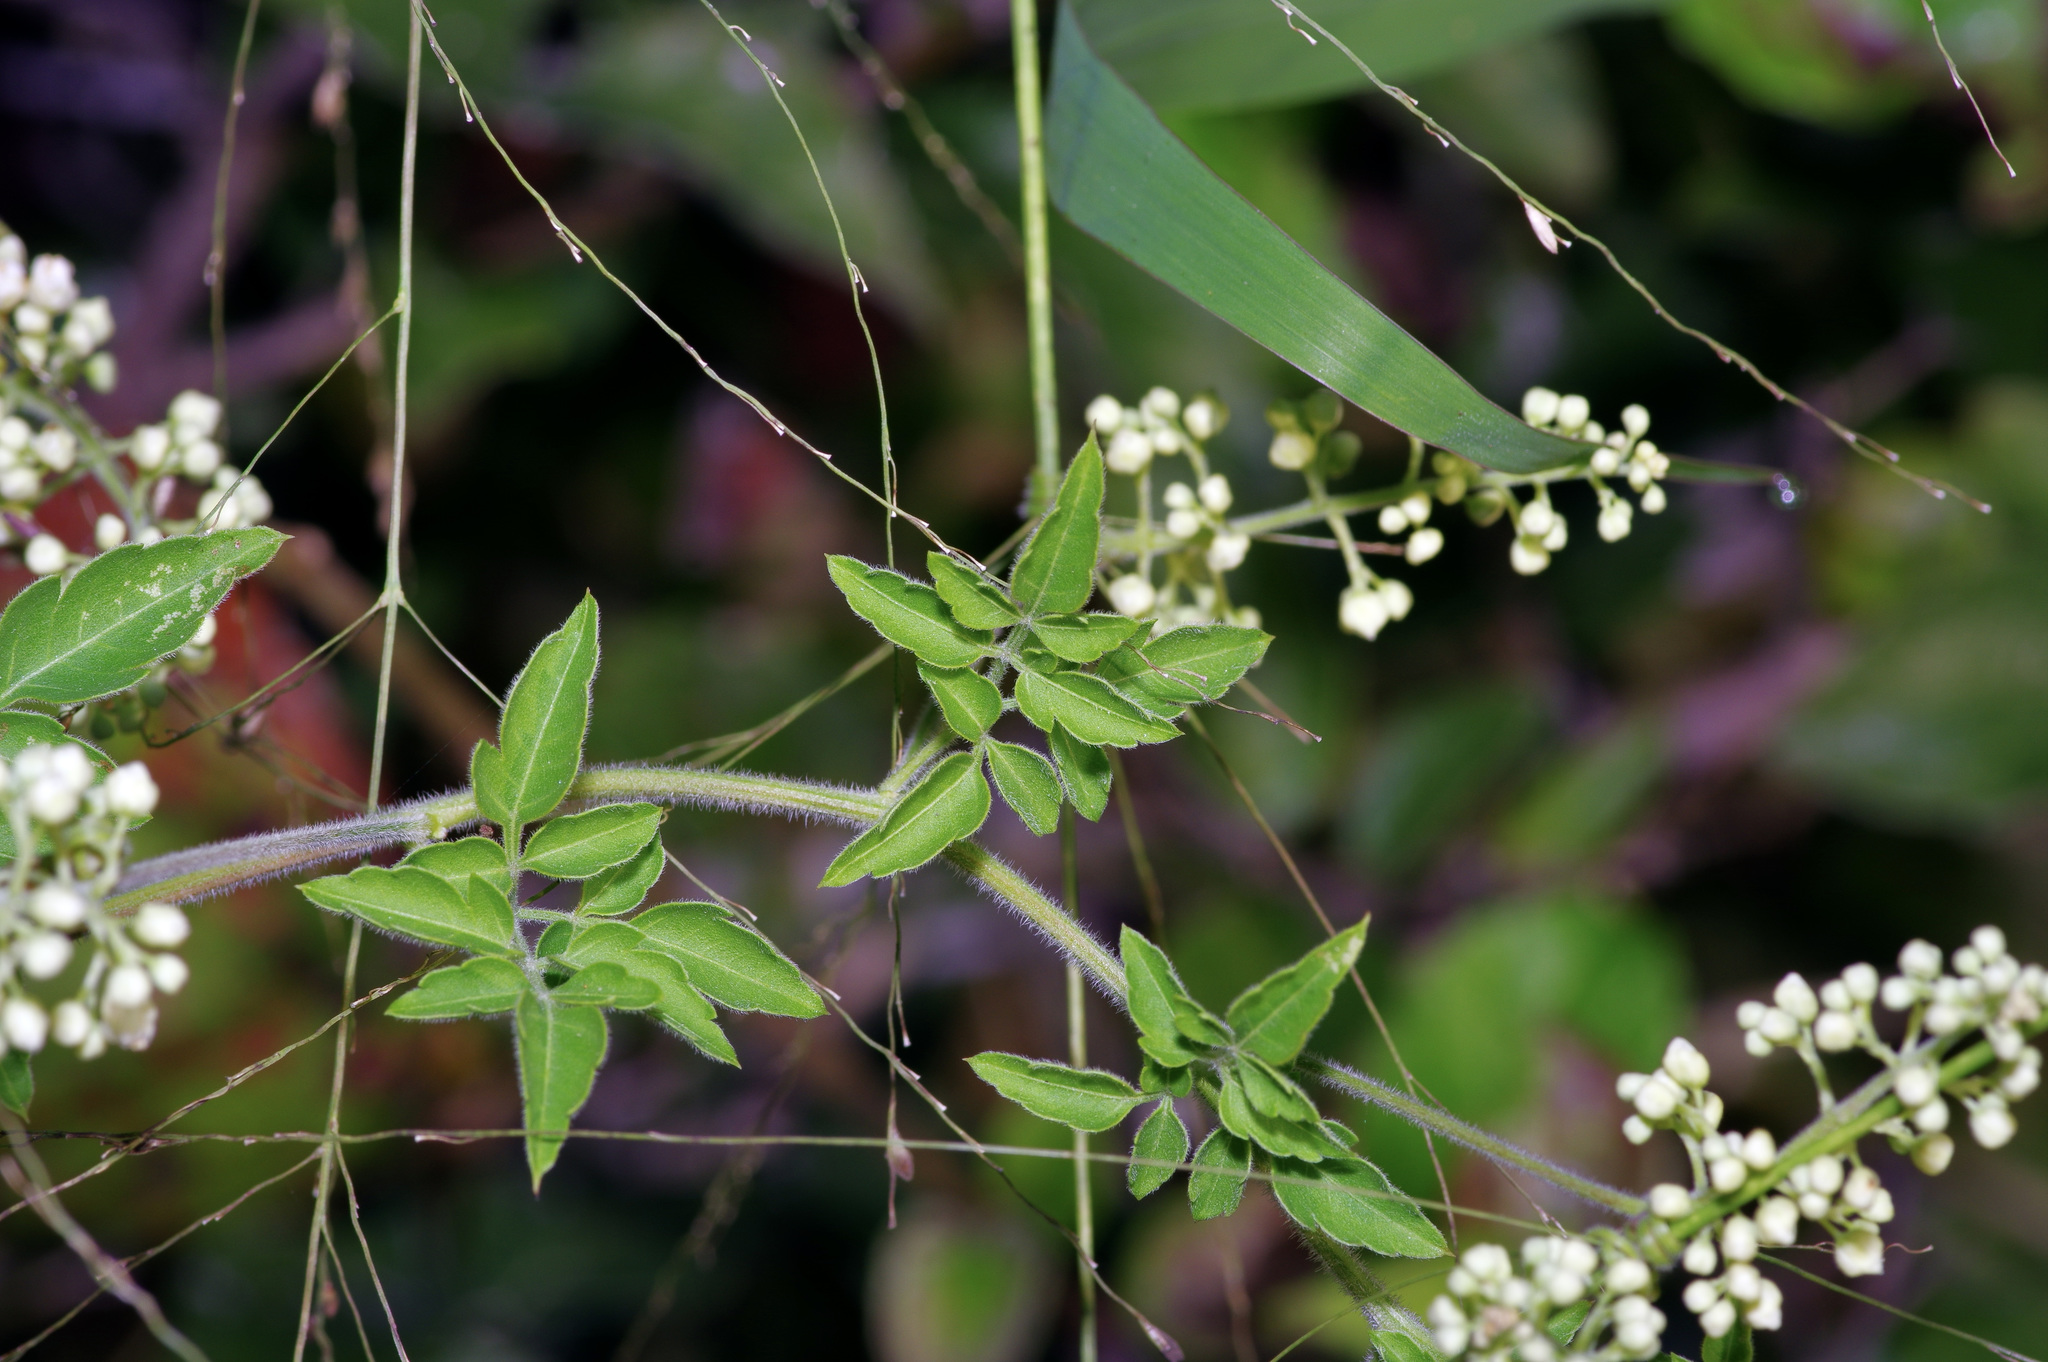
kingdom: Plantae
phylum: Tracheophyta
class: Magnoliopsida
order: Sapindales
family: Sapindaceae
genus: Serjania
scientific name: Serjania brachycarpa
